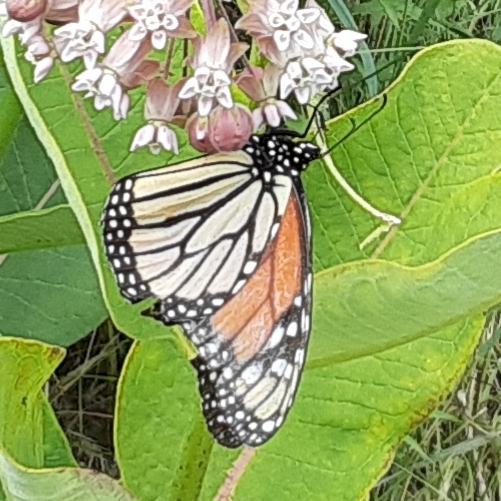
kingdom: Animalia
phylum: Arthropoda
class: Insecta
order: Lepidoptera
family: Nymphalidae
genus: Danaus
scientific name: Danaus plexippus
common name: Monarch
